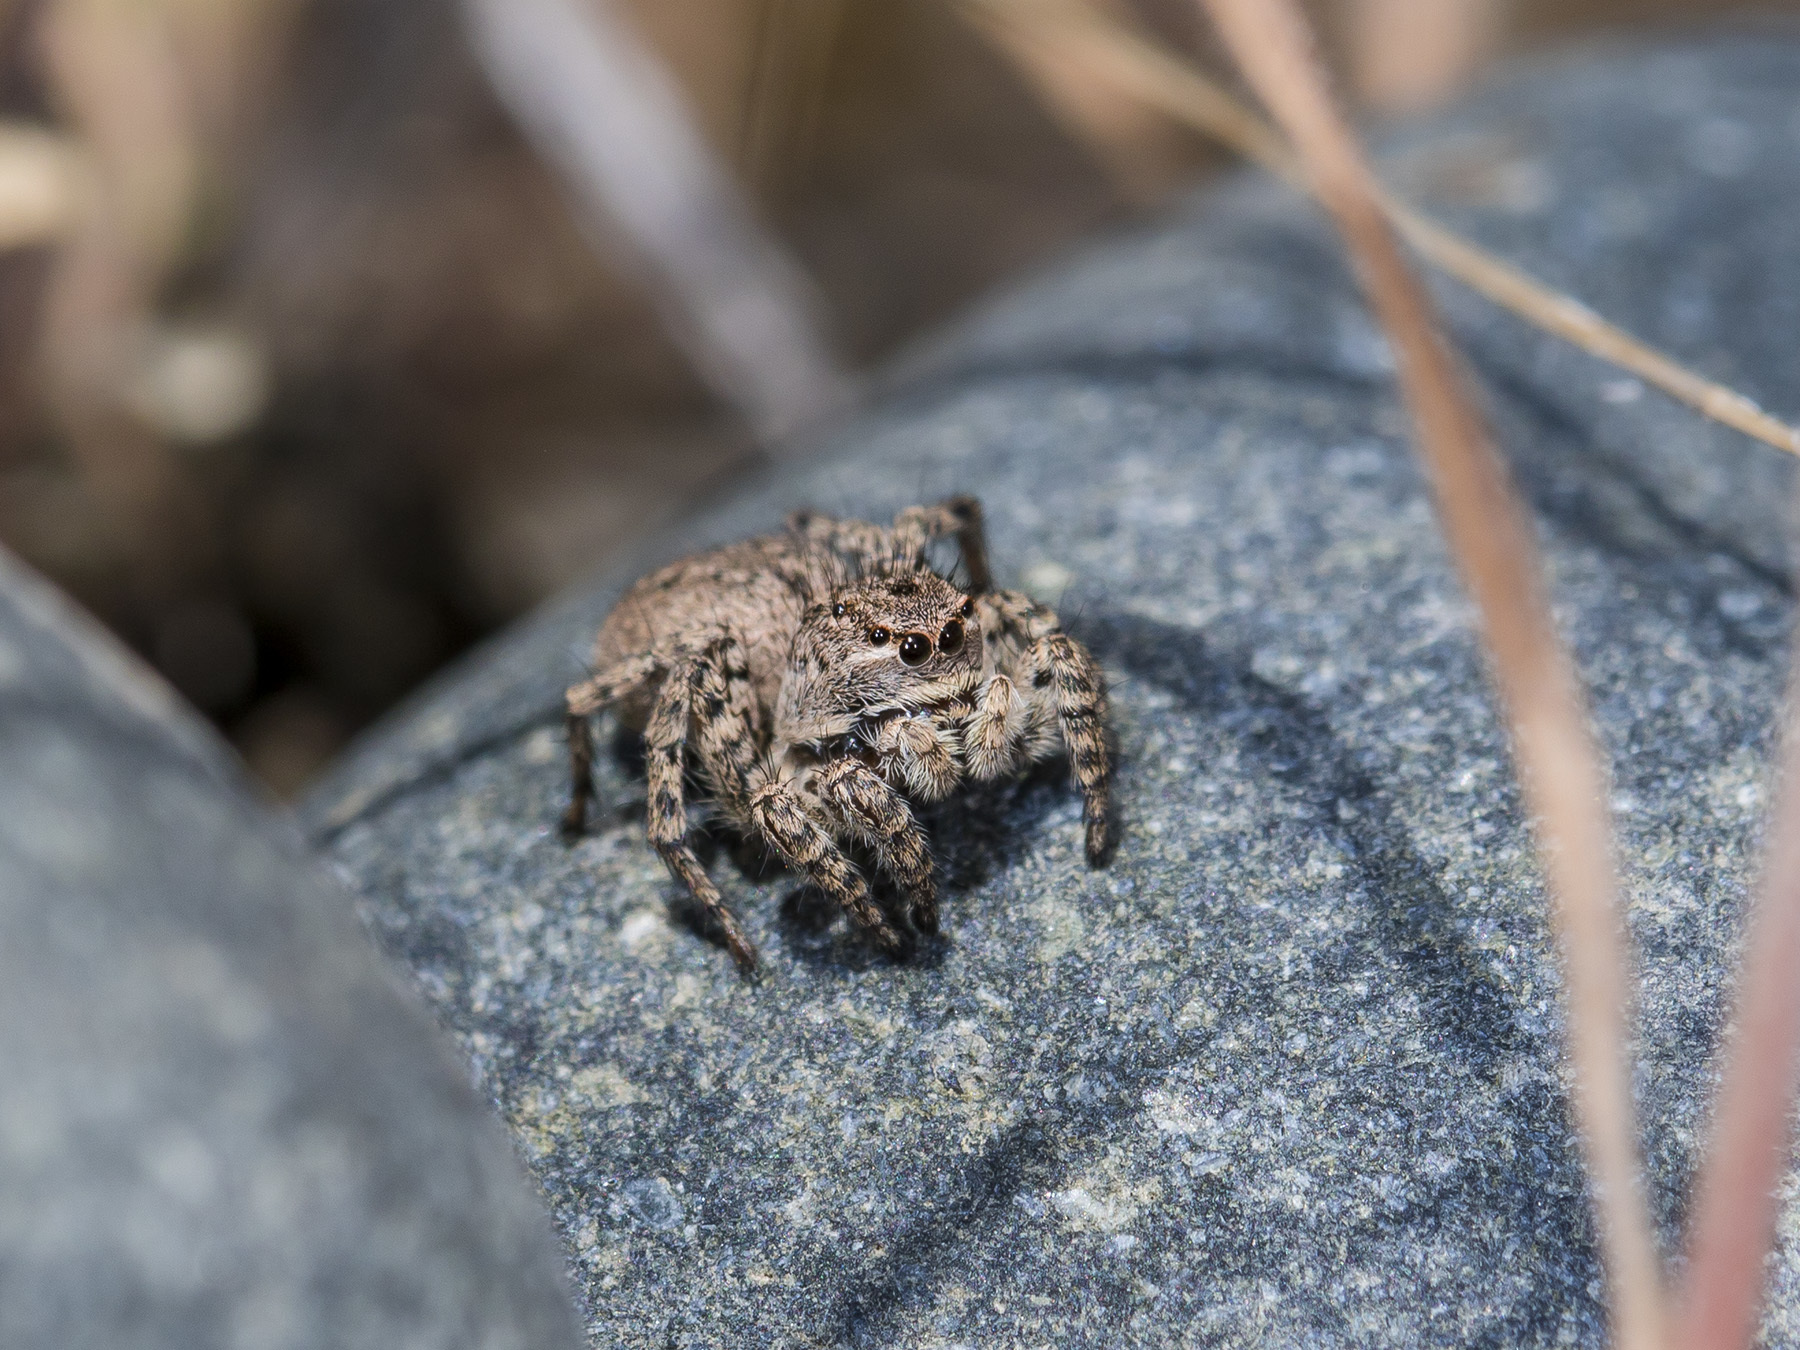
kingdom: Animalia
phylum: Arthropoda
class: Arachnida
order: Araneae
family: Salticidae
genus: Aelurillus
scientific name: Aelurillus v-insignitus
